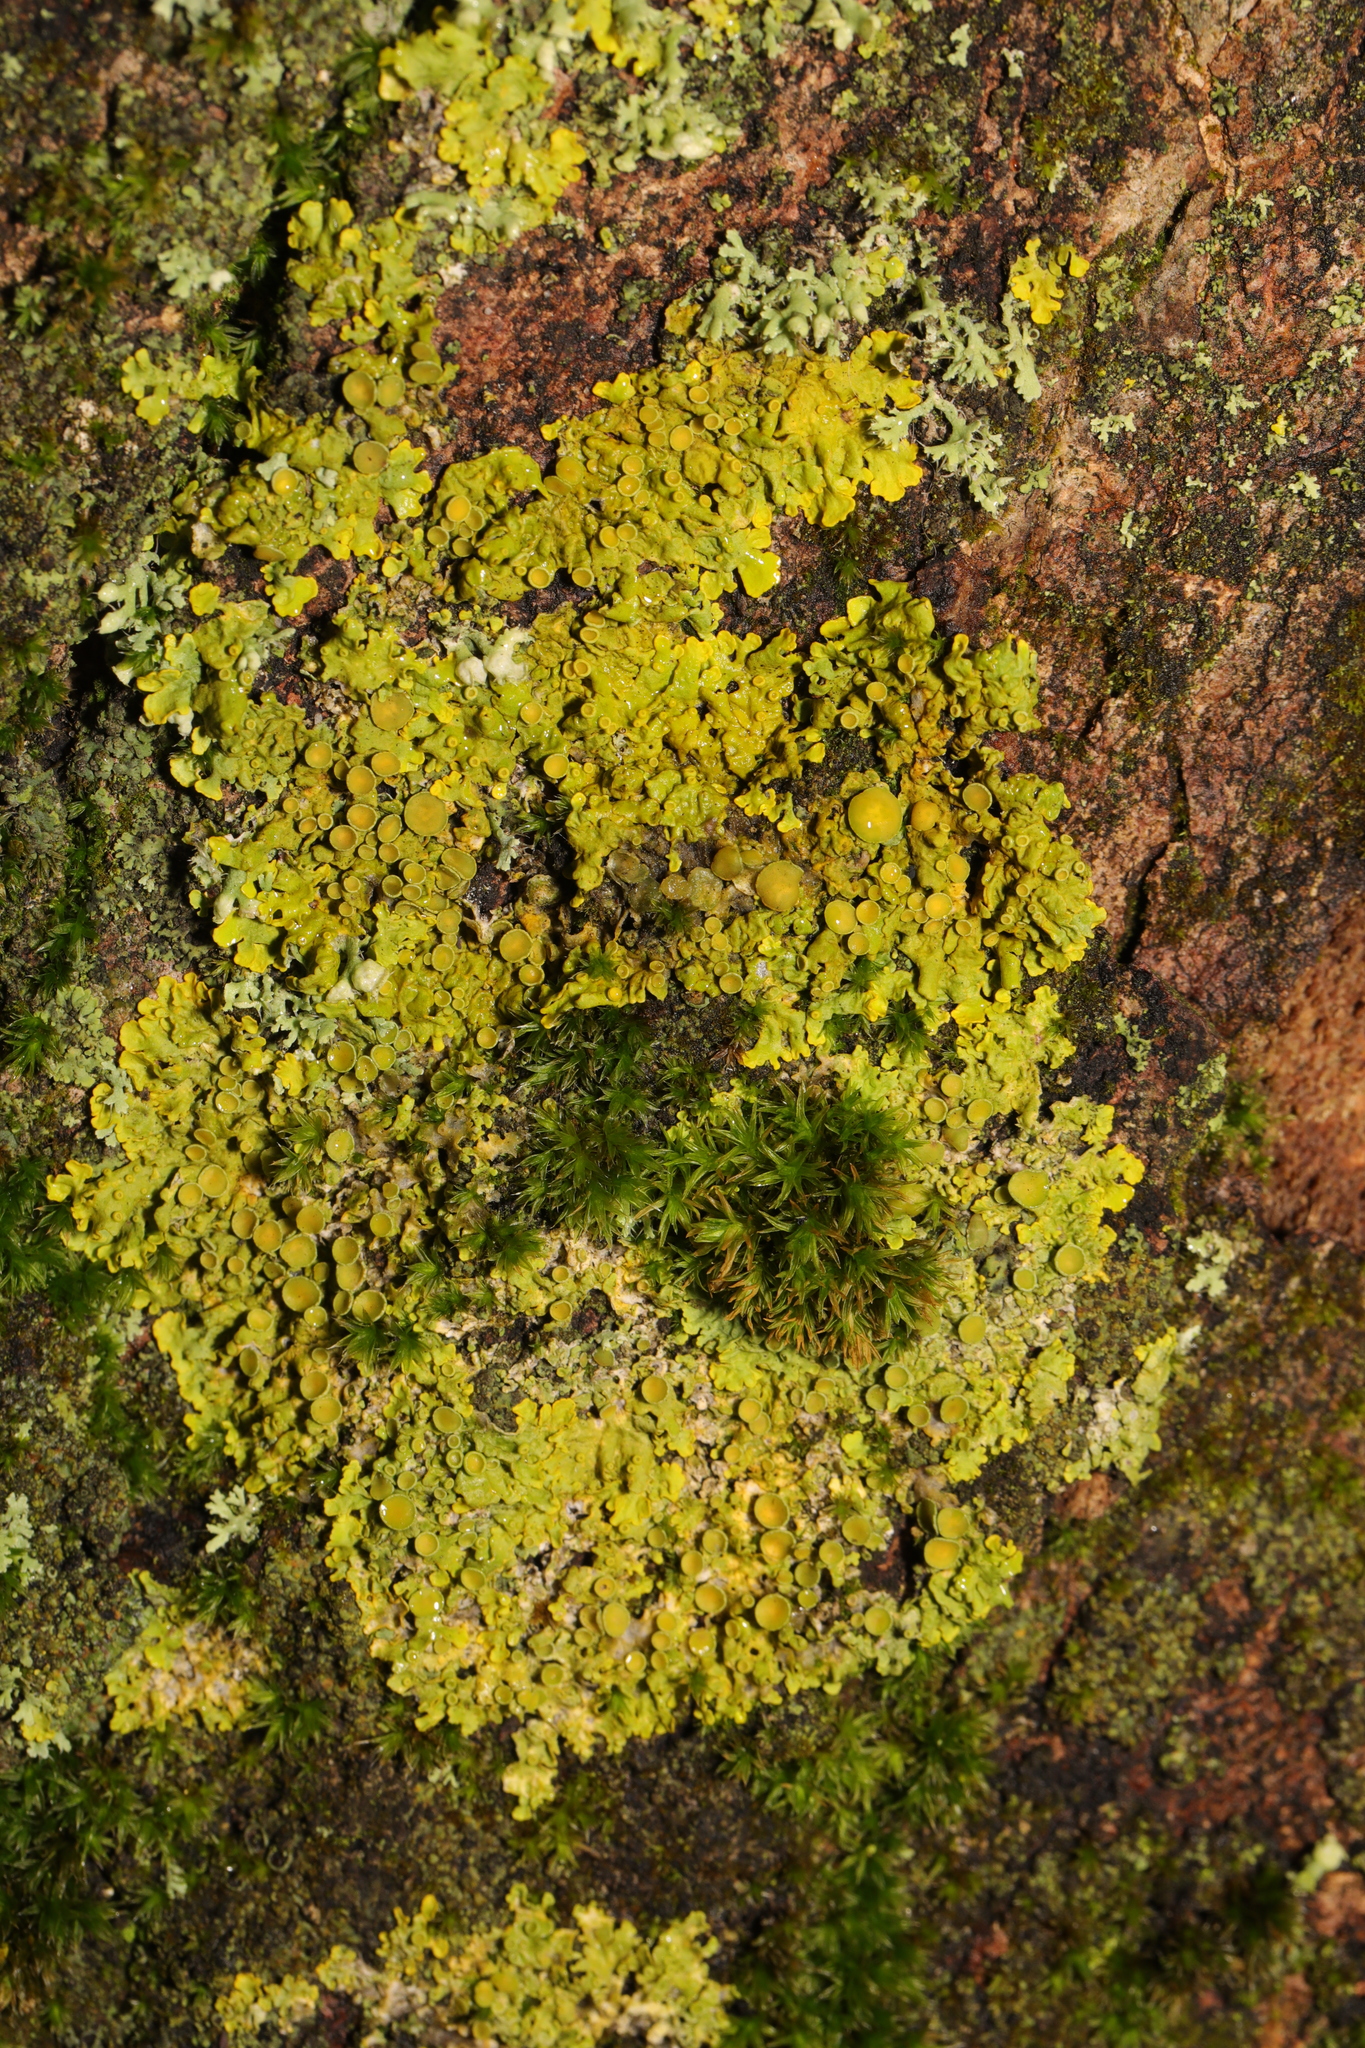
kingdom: Fungi
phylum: Ascomycota
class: Lecanoromycetes
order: Teloschistales
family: Teloschistaceae
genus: Xanthoria
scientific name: Xanthoria parietina
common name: Common orange lichen
